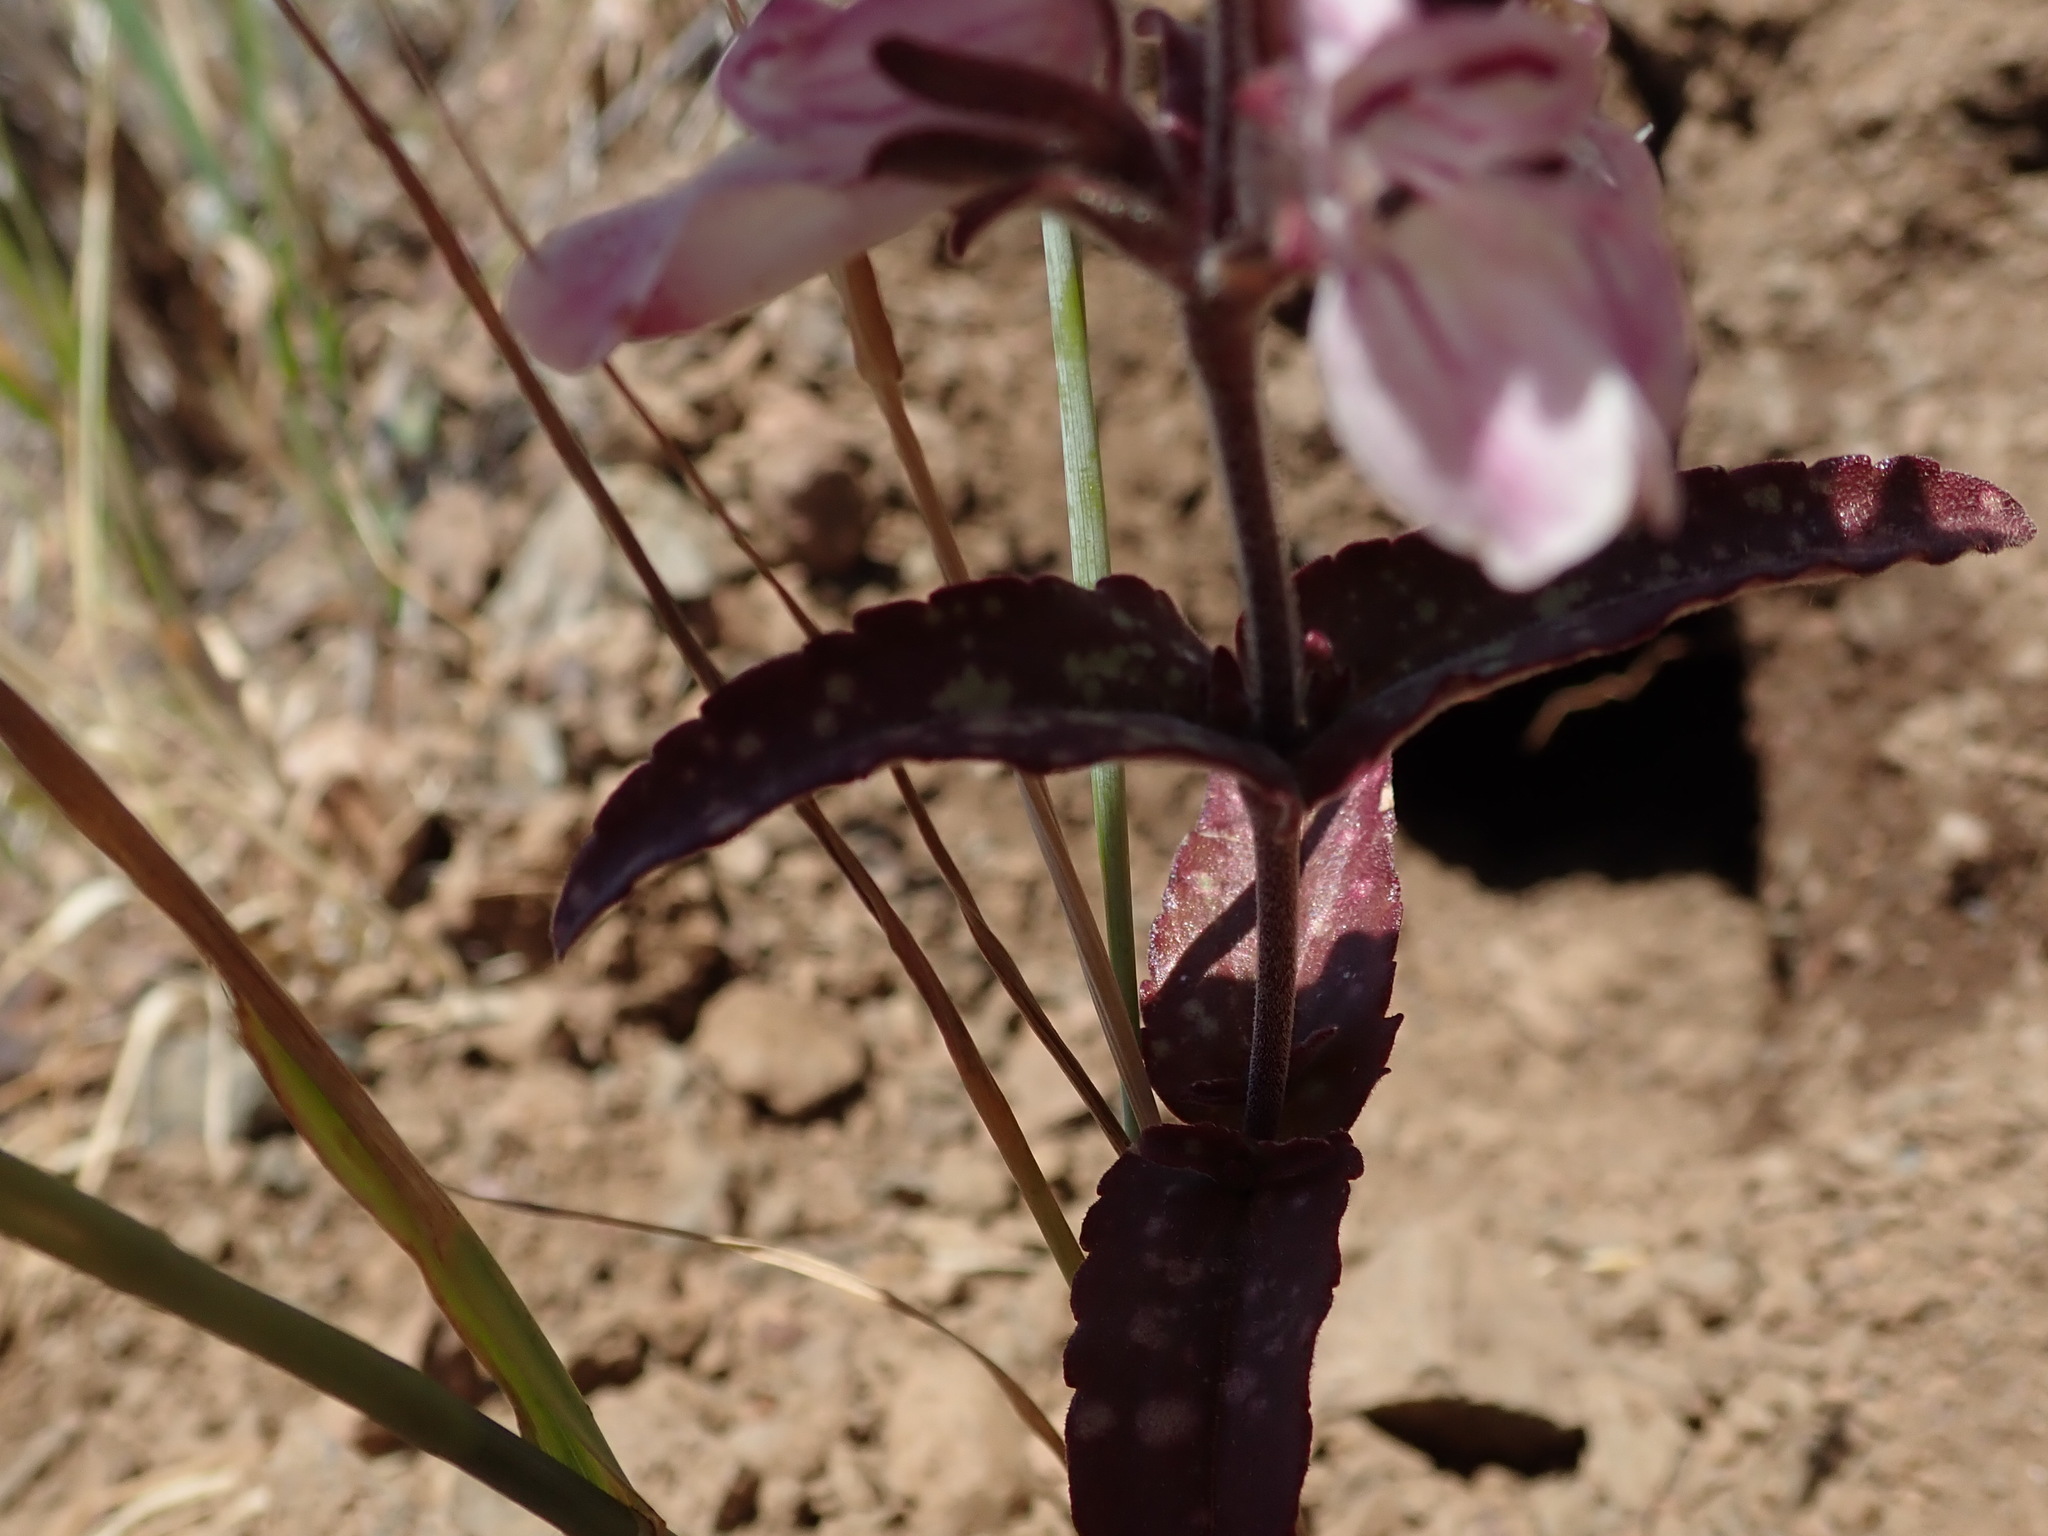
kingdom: Plantae
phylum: Tracheophyta
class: Magnoliopsida
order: Lamiales
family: Plantaginaceae
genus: Collinsia
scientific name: Collinsia tinctoria
